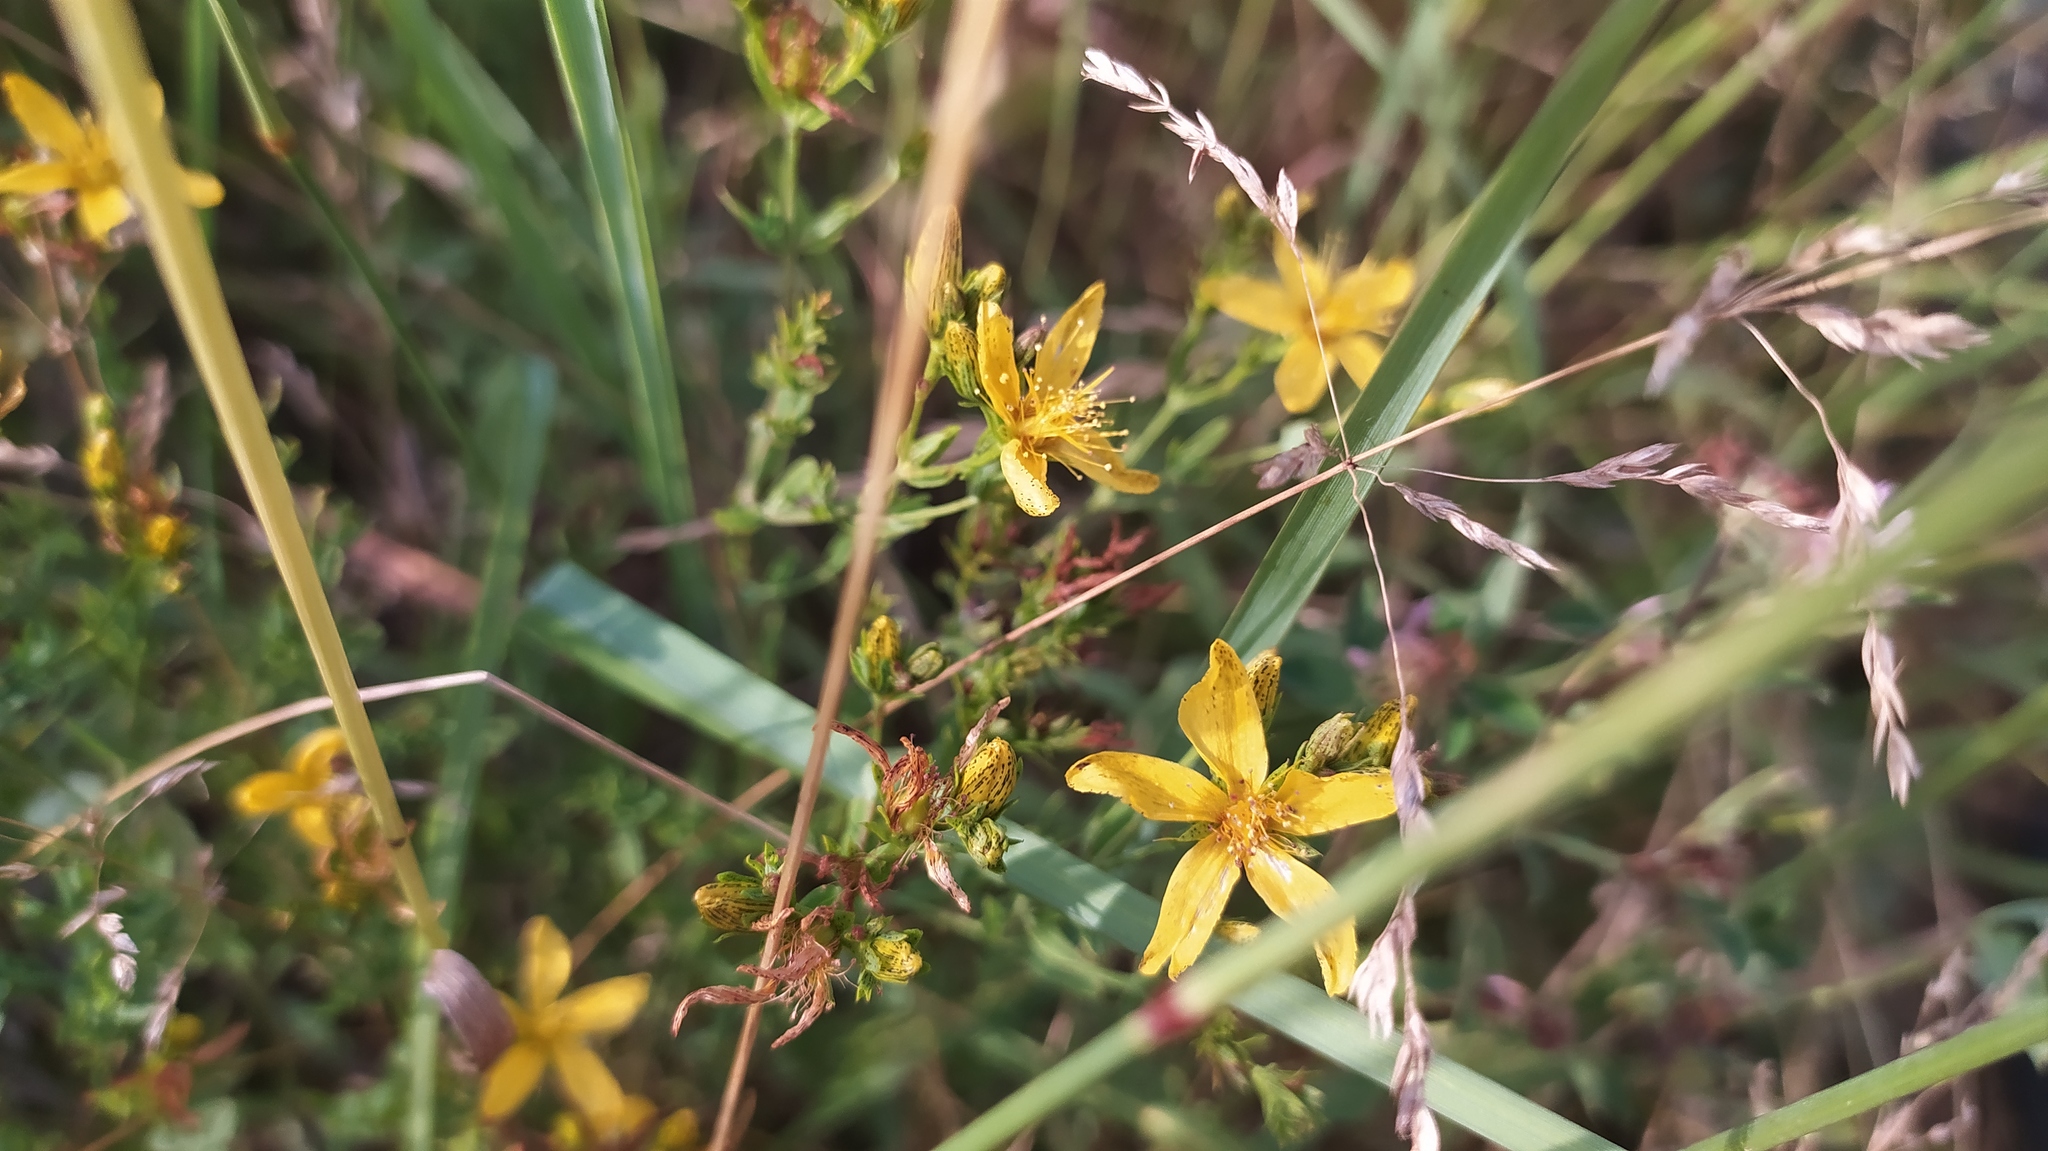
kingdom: Plantae
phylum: Tracheophyta
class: Magnoliopsida
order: Malpighiales
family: Hypericaceae
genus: Hypericum
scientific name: Hypericum perforatum
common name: Common st. johnswort
